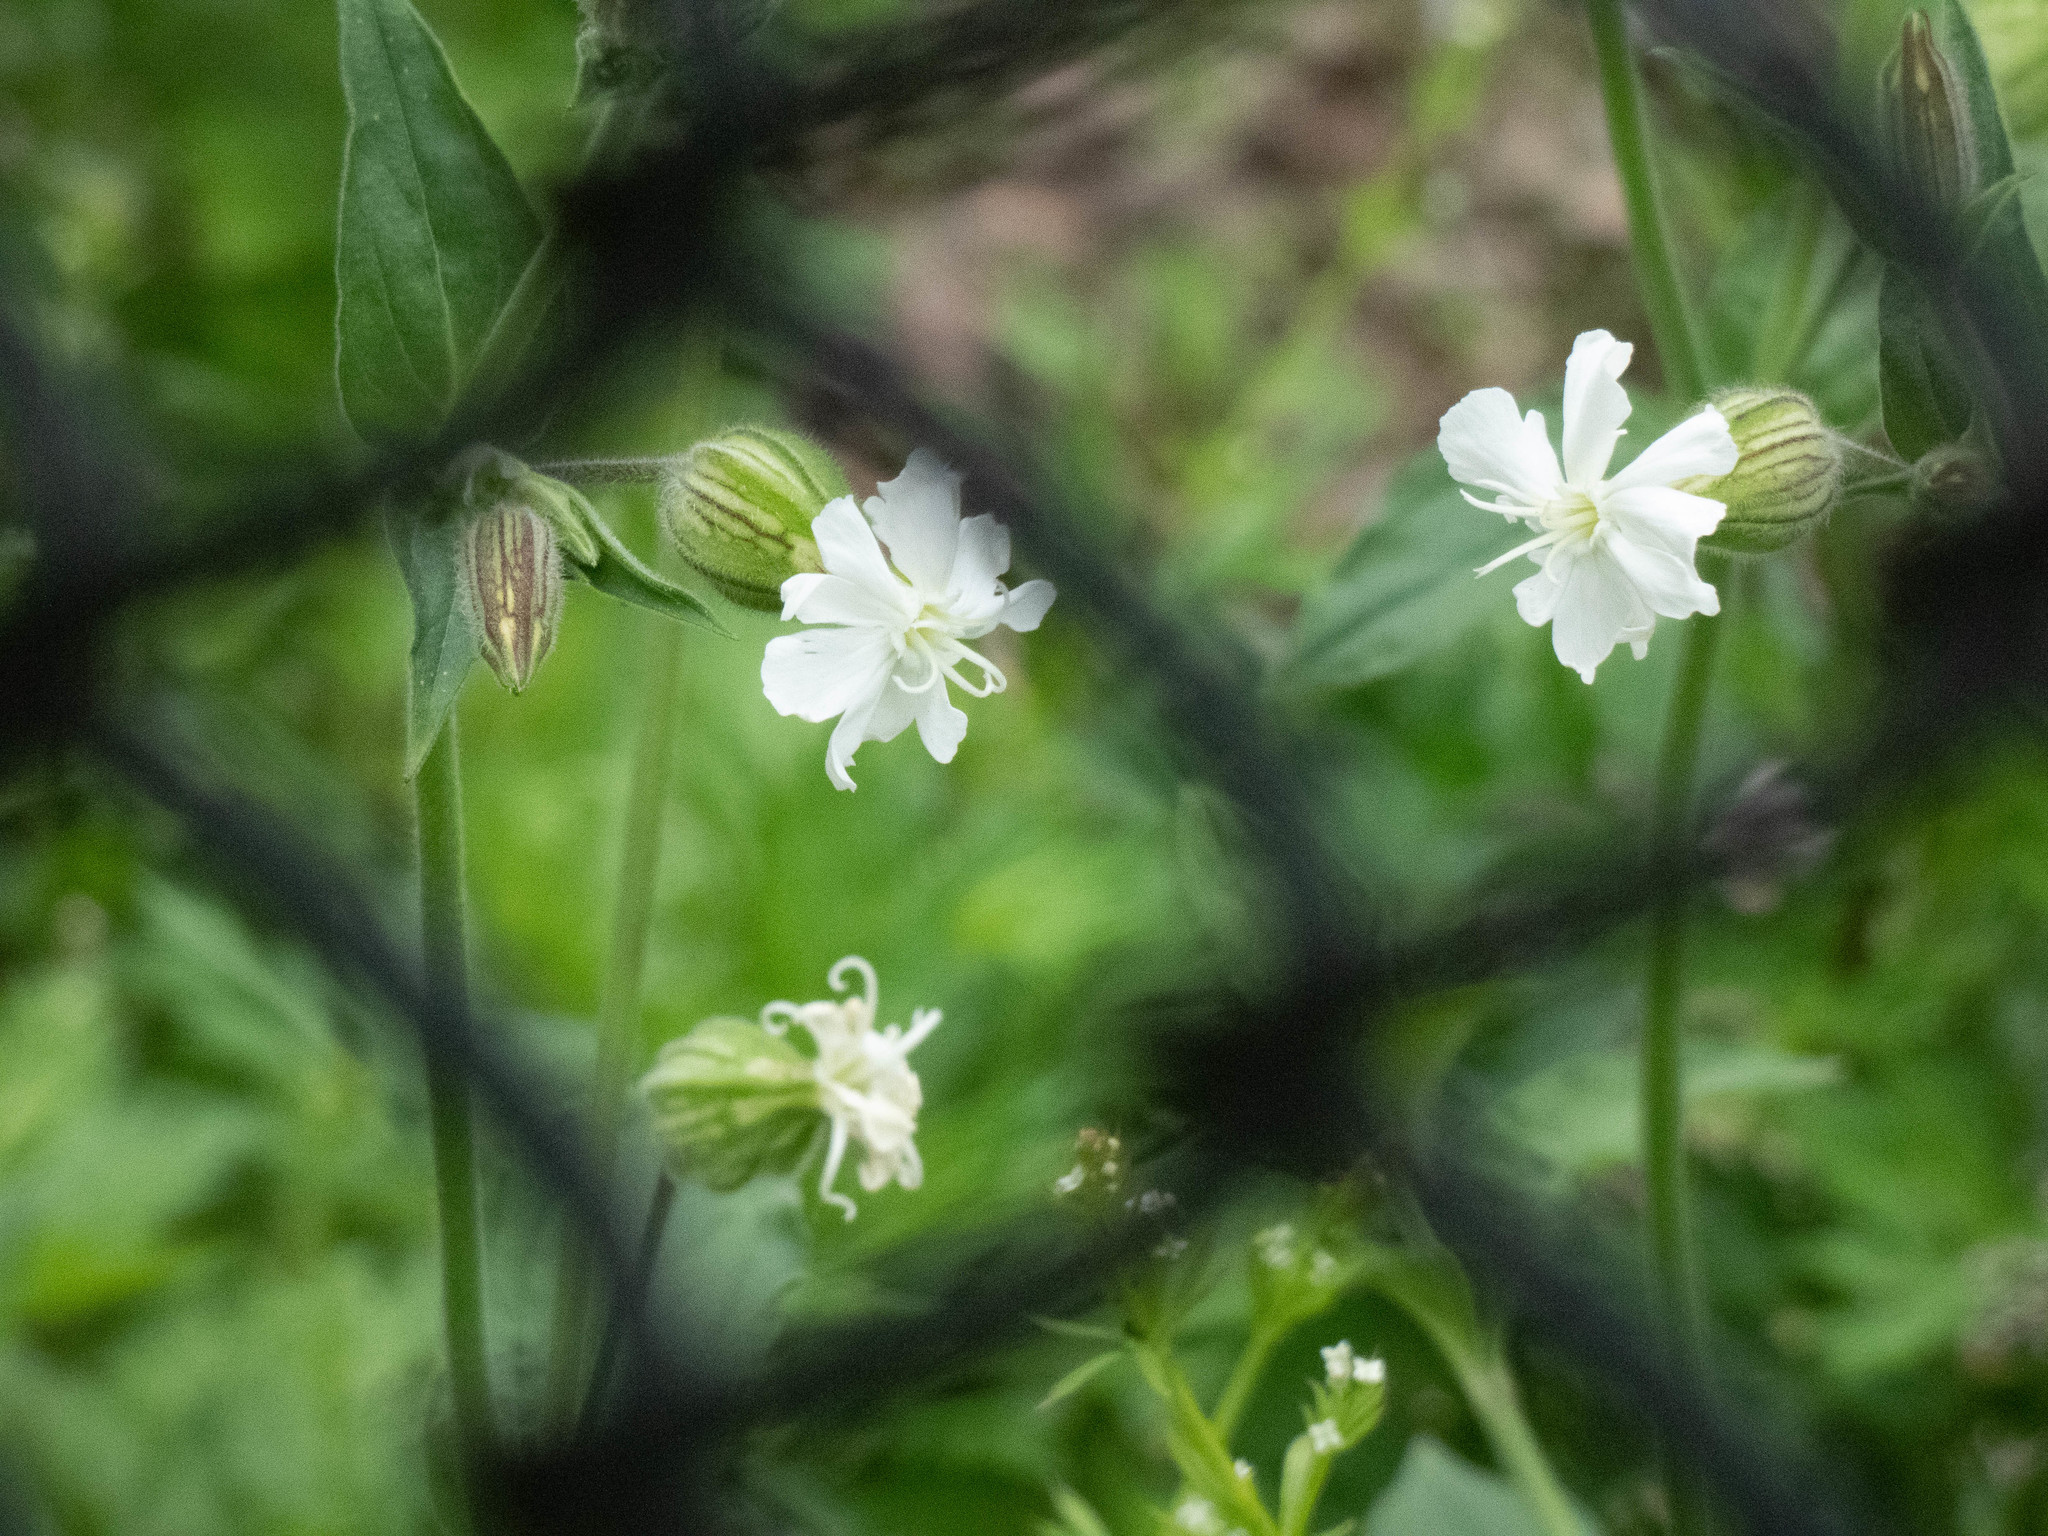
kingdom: Plantae
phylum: Tracheophyta
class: Magnoliopsida
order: Caryophyllales
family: Caryophyllaceae
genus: Silene
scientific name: Silene latifolia
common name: White campion
